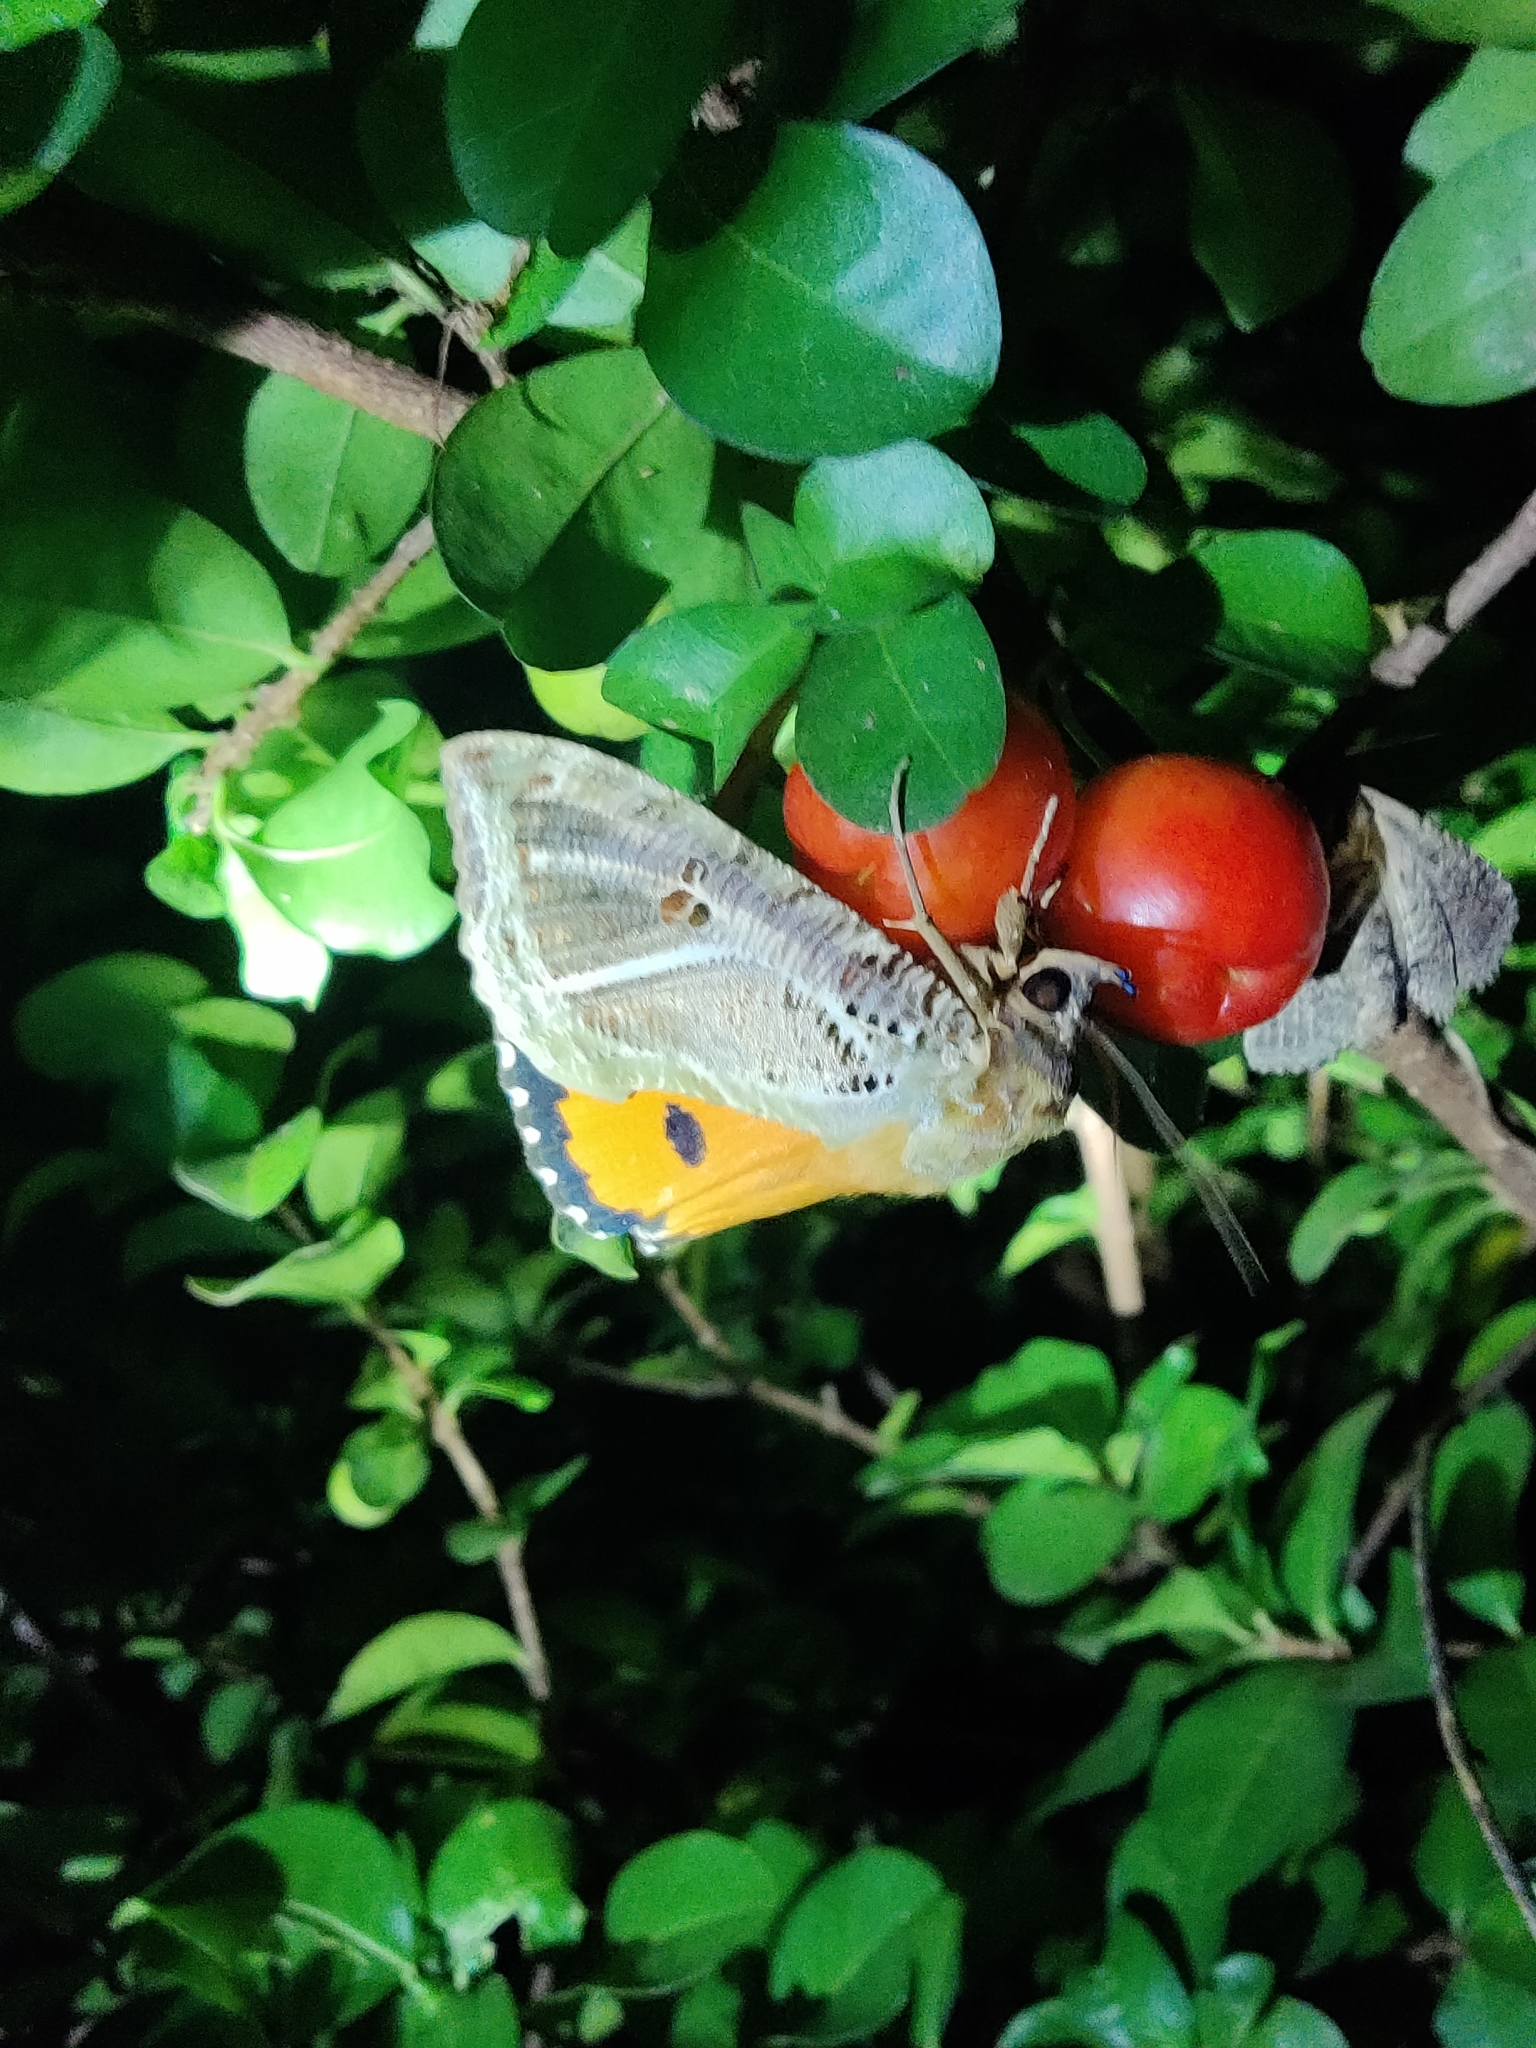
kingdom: Animalia
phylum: Arthropoda
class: Insecta
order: Lepidoptera
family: Erebidae
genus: Eudocima
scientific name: Eudocima materna
